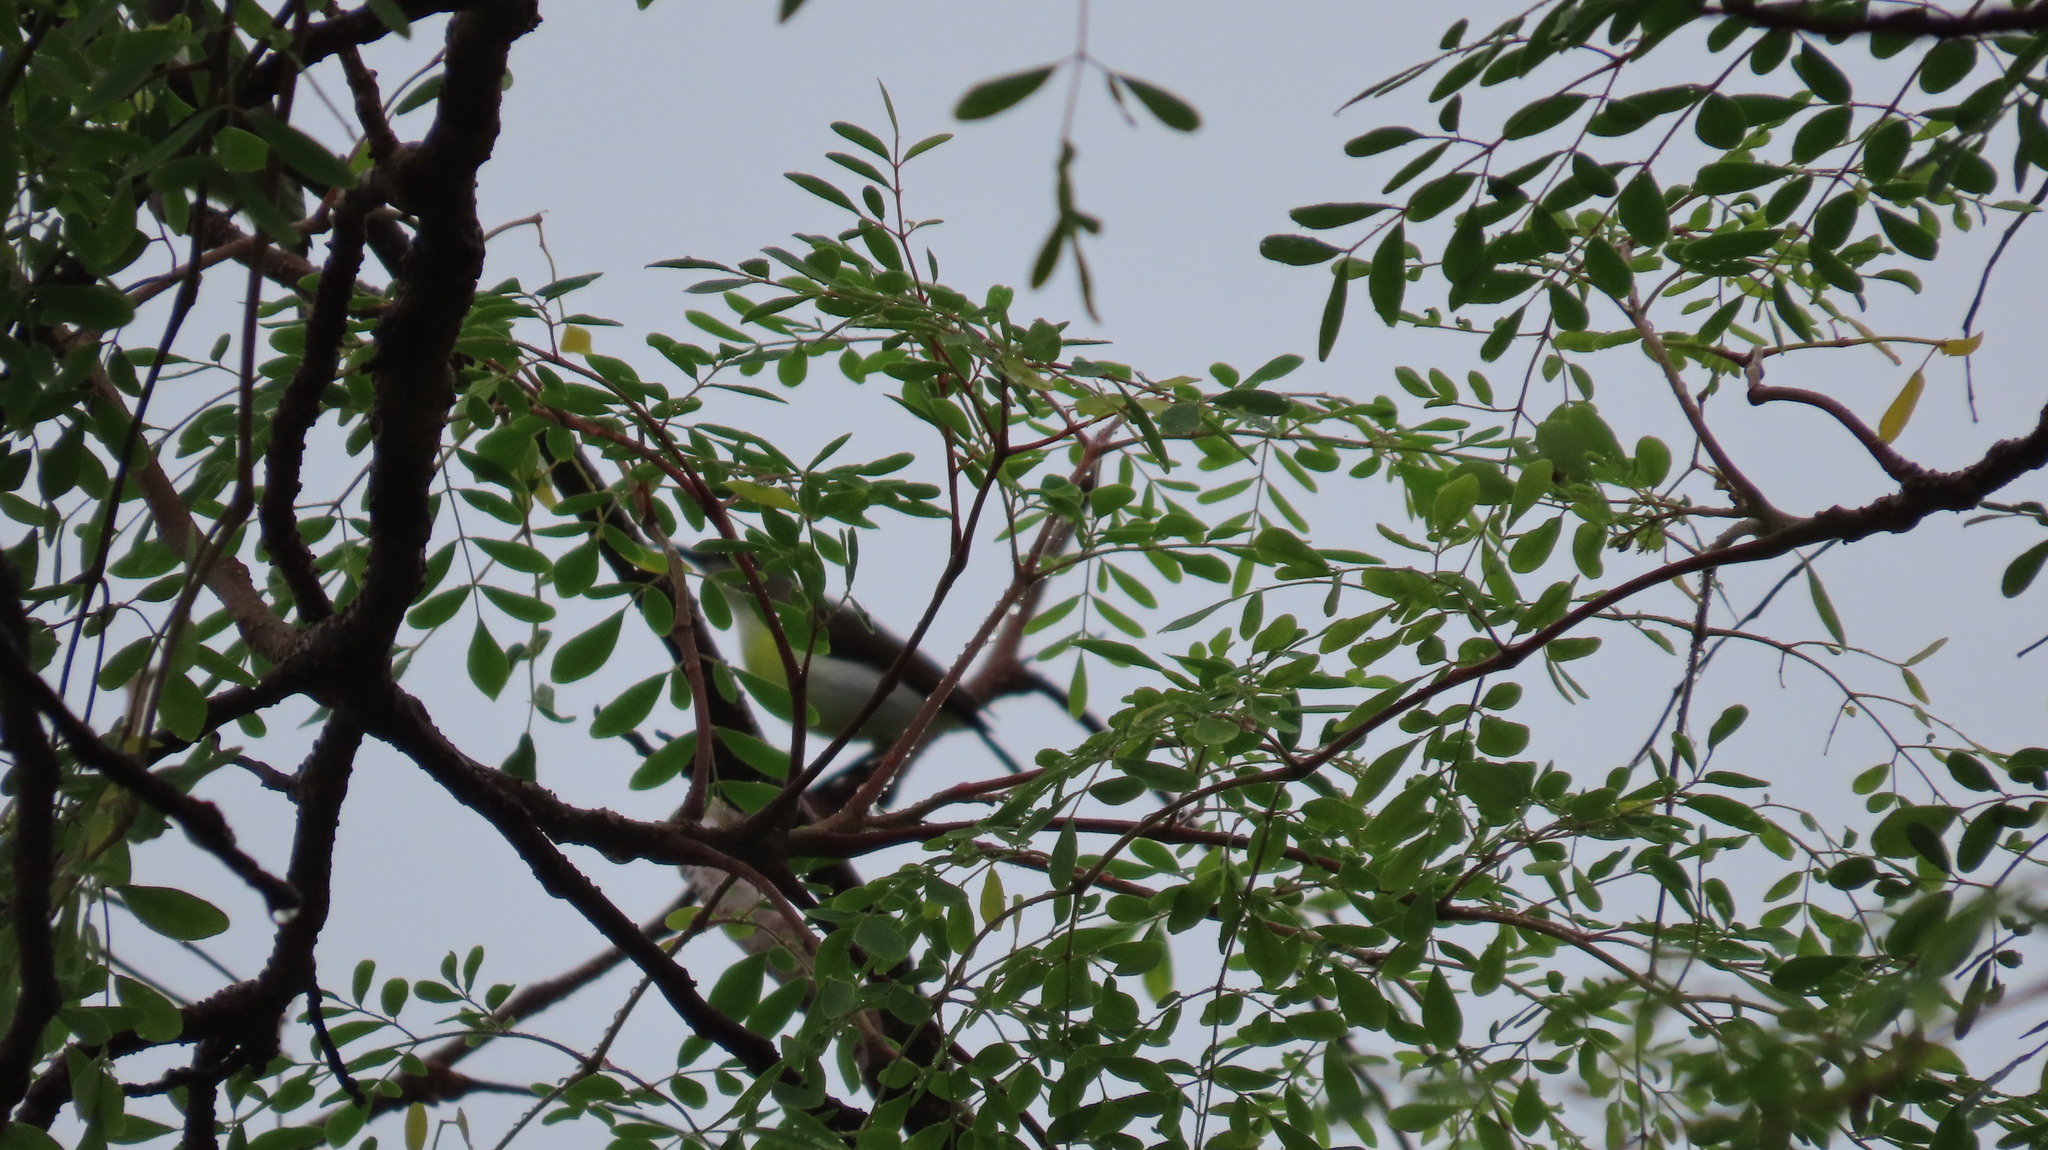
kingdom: Animalia
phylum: Chordata
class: Aves
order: Passeriformes
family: Nectariniidae
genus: Leptocoma
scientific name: Leptocoma zeylonica
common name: Purple-rumped sunbird
